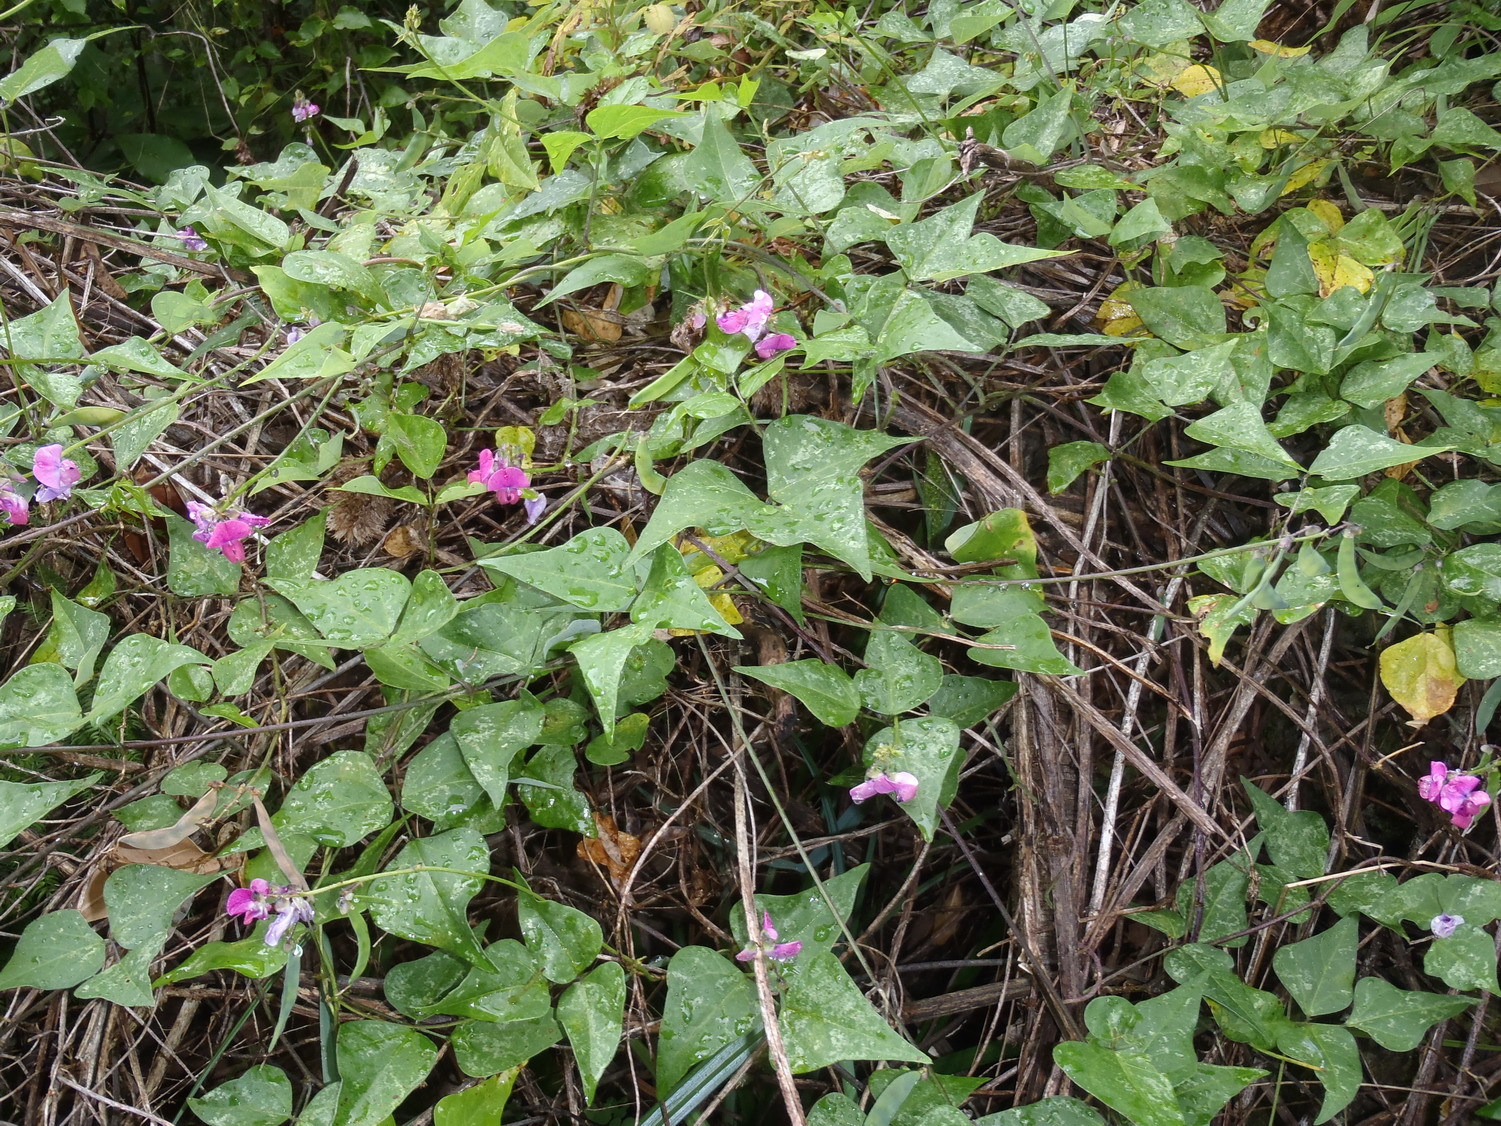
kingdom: Plantae
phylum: Tracheophyta
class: Magnoliopsida
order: Fabales
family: Fabaceae
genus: Dipogon
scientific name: Dipogon lignosus
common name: Okie bean
